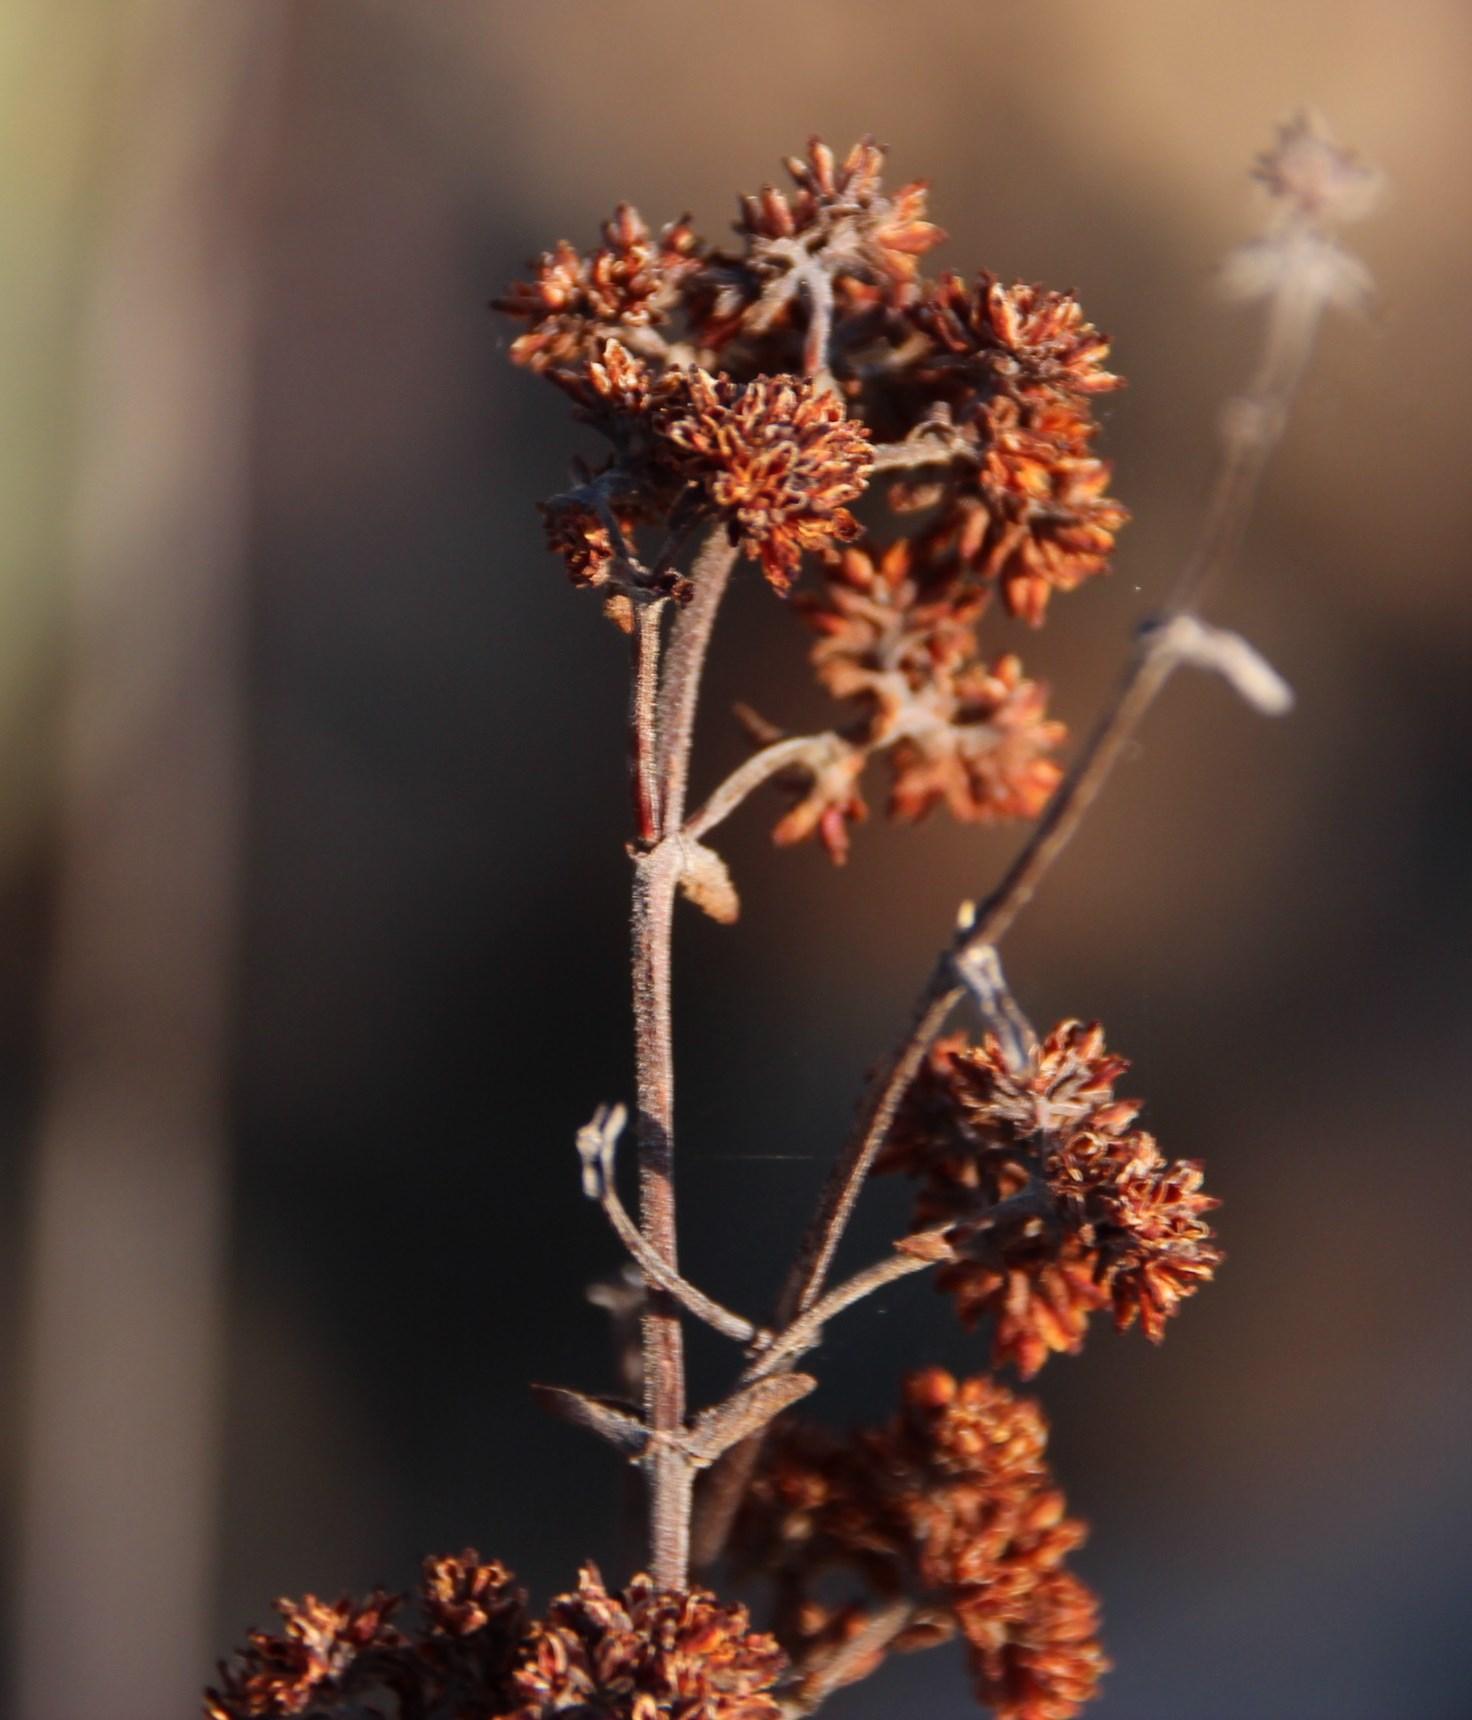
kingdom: Plantae
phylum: Tracheophyta
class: Magnoliopsida
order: Saxifragales
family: Crassulaceae
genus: Crassula
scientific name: Crassula cultrata
